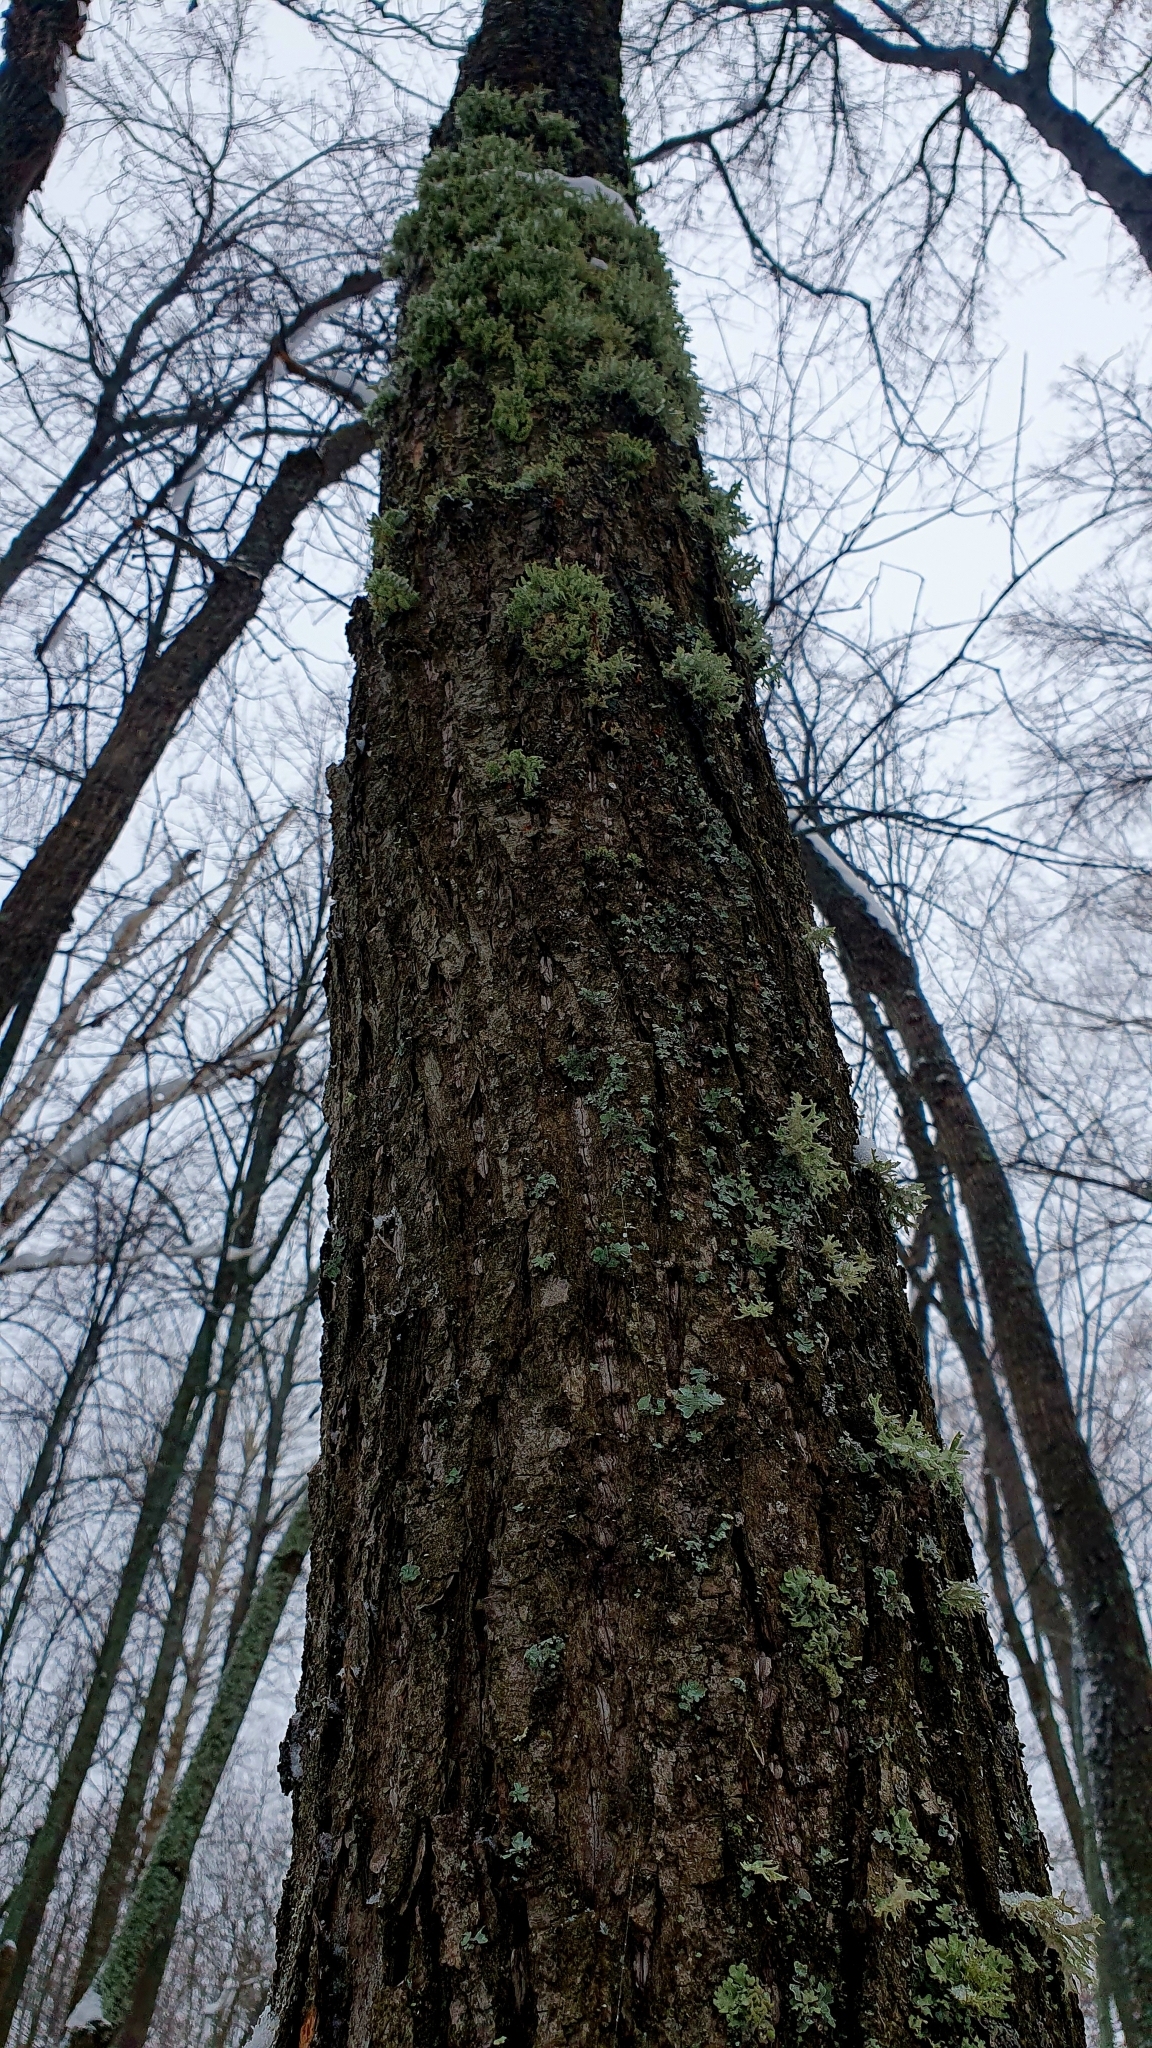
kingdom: Fungi
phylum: Ascomycota
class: Lecanoromycetes
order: Lecanorales
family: Parmeliaceae
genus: Evernia
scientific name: Evernia prunastri
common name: Oak moss
